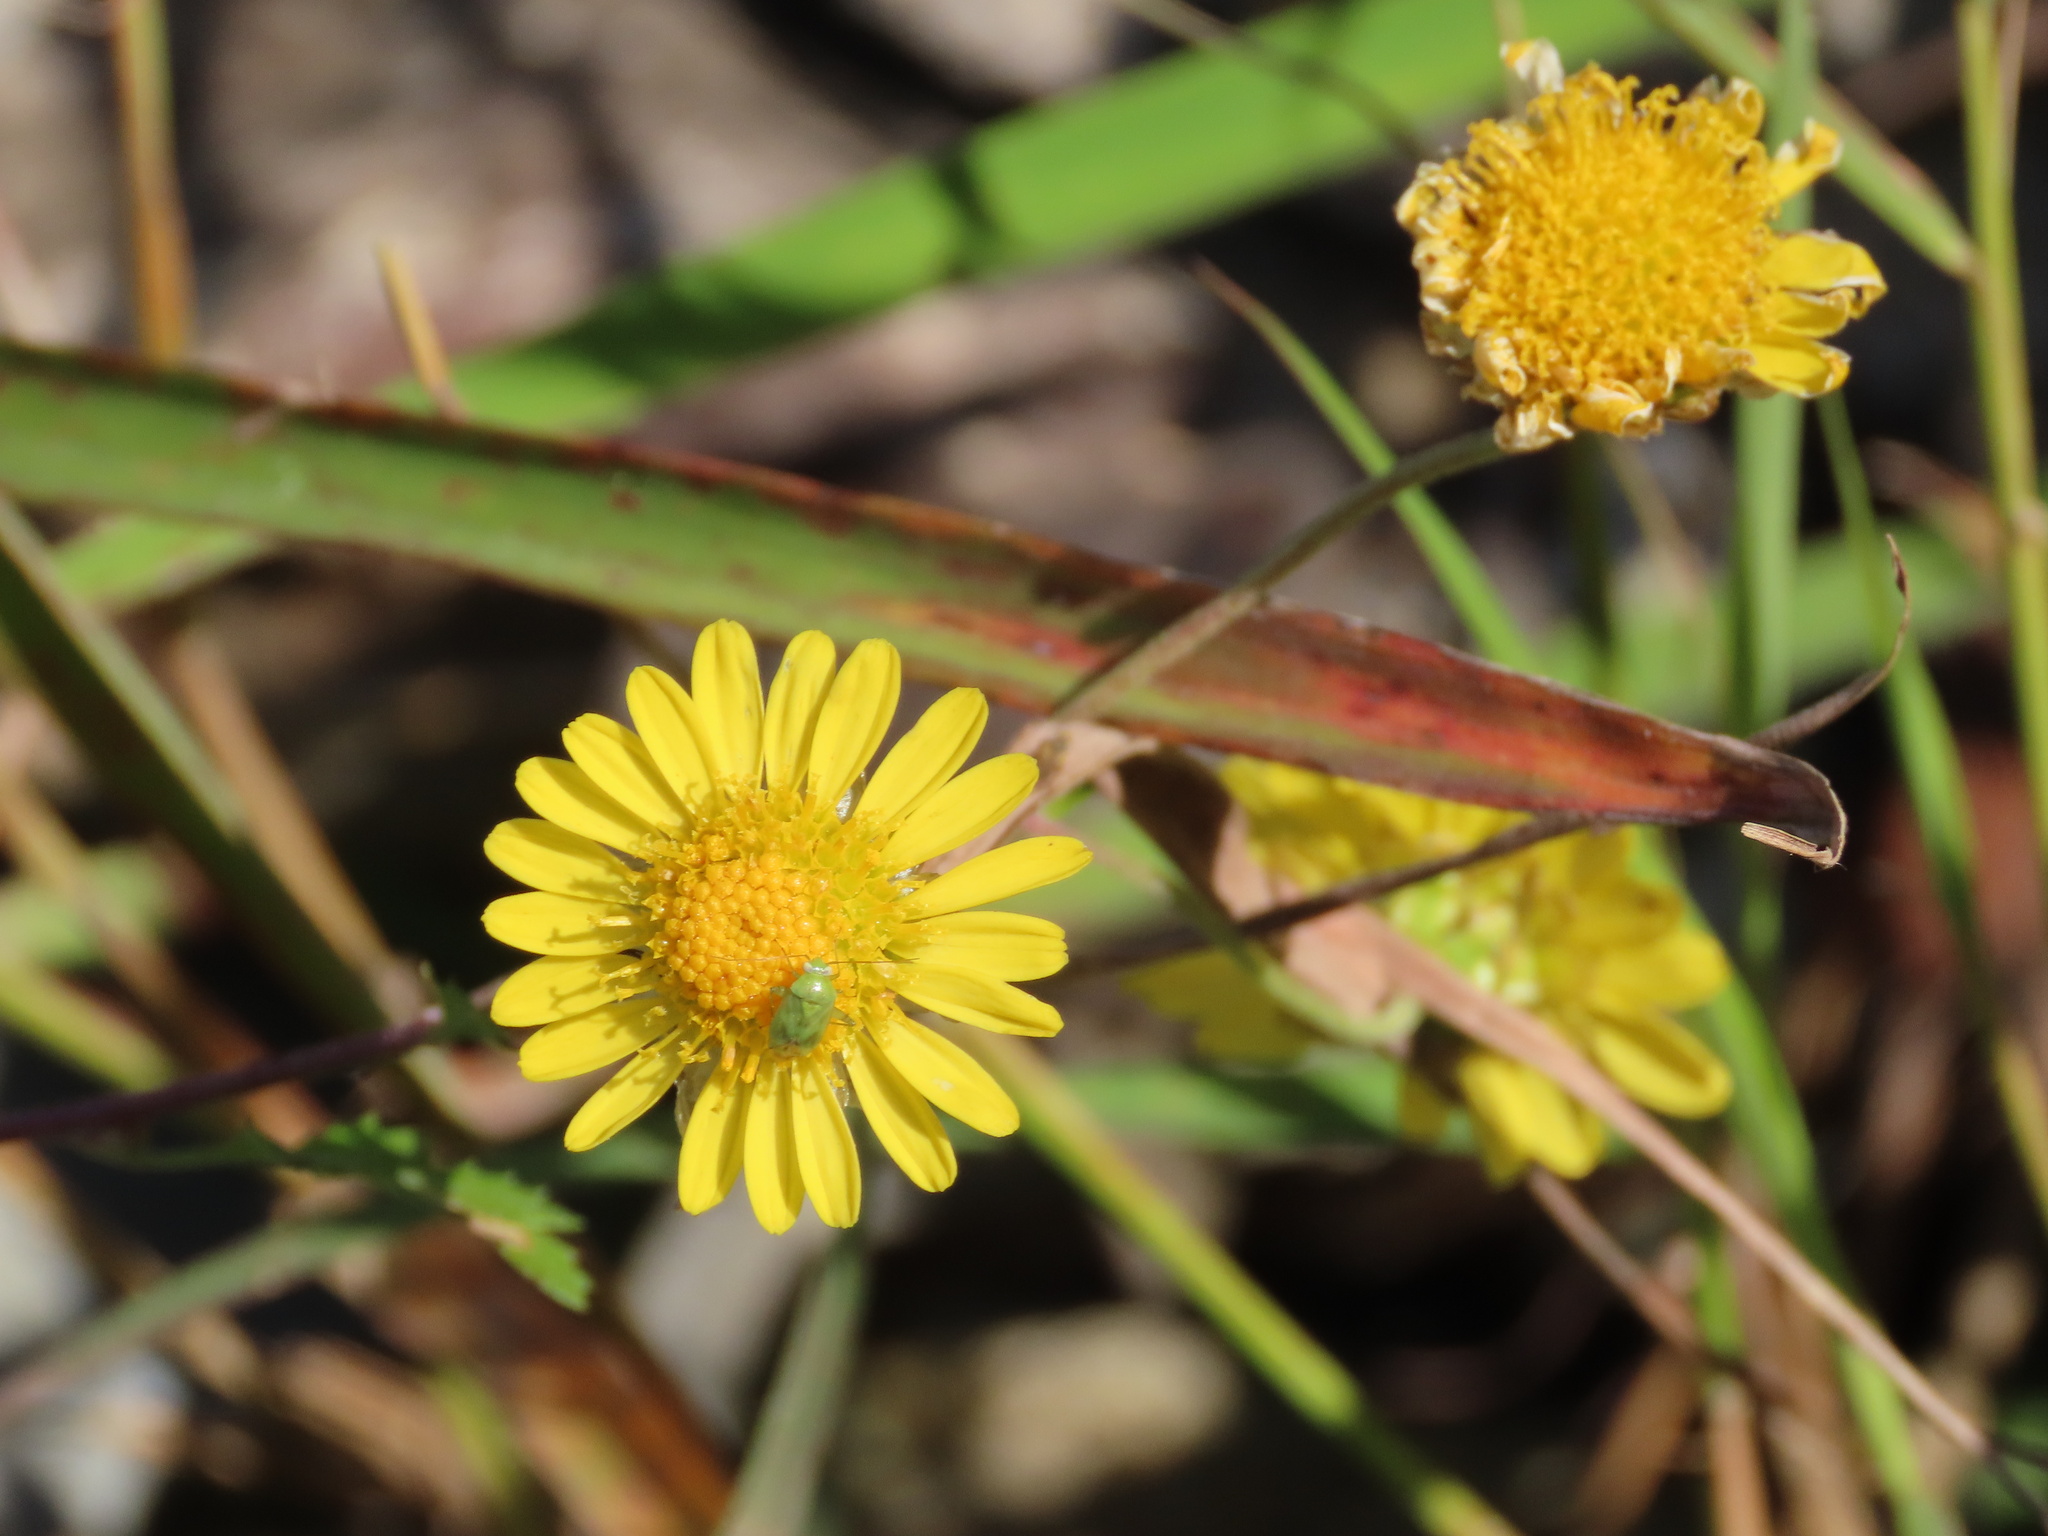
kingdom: Plantae
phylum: Tracheophyta
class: Magnoliopsida
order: Asterales
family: Asteraceae
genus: Chrysanthemum
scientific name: Chrysanthemum indicum
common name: Indian chrysanthemum
